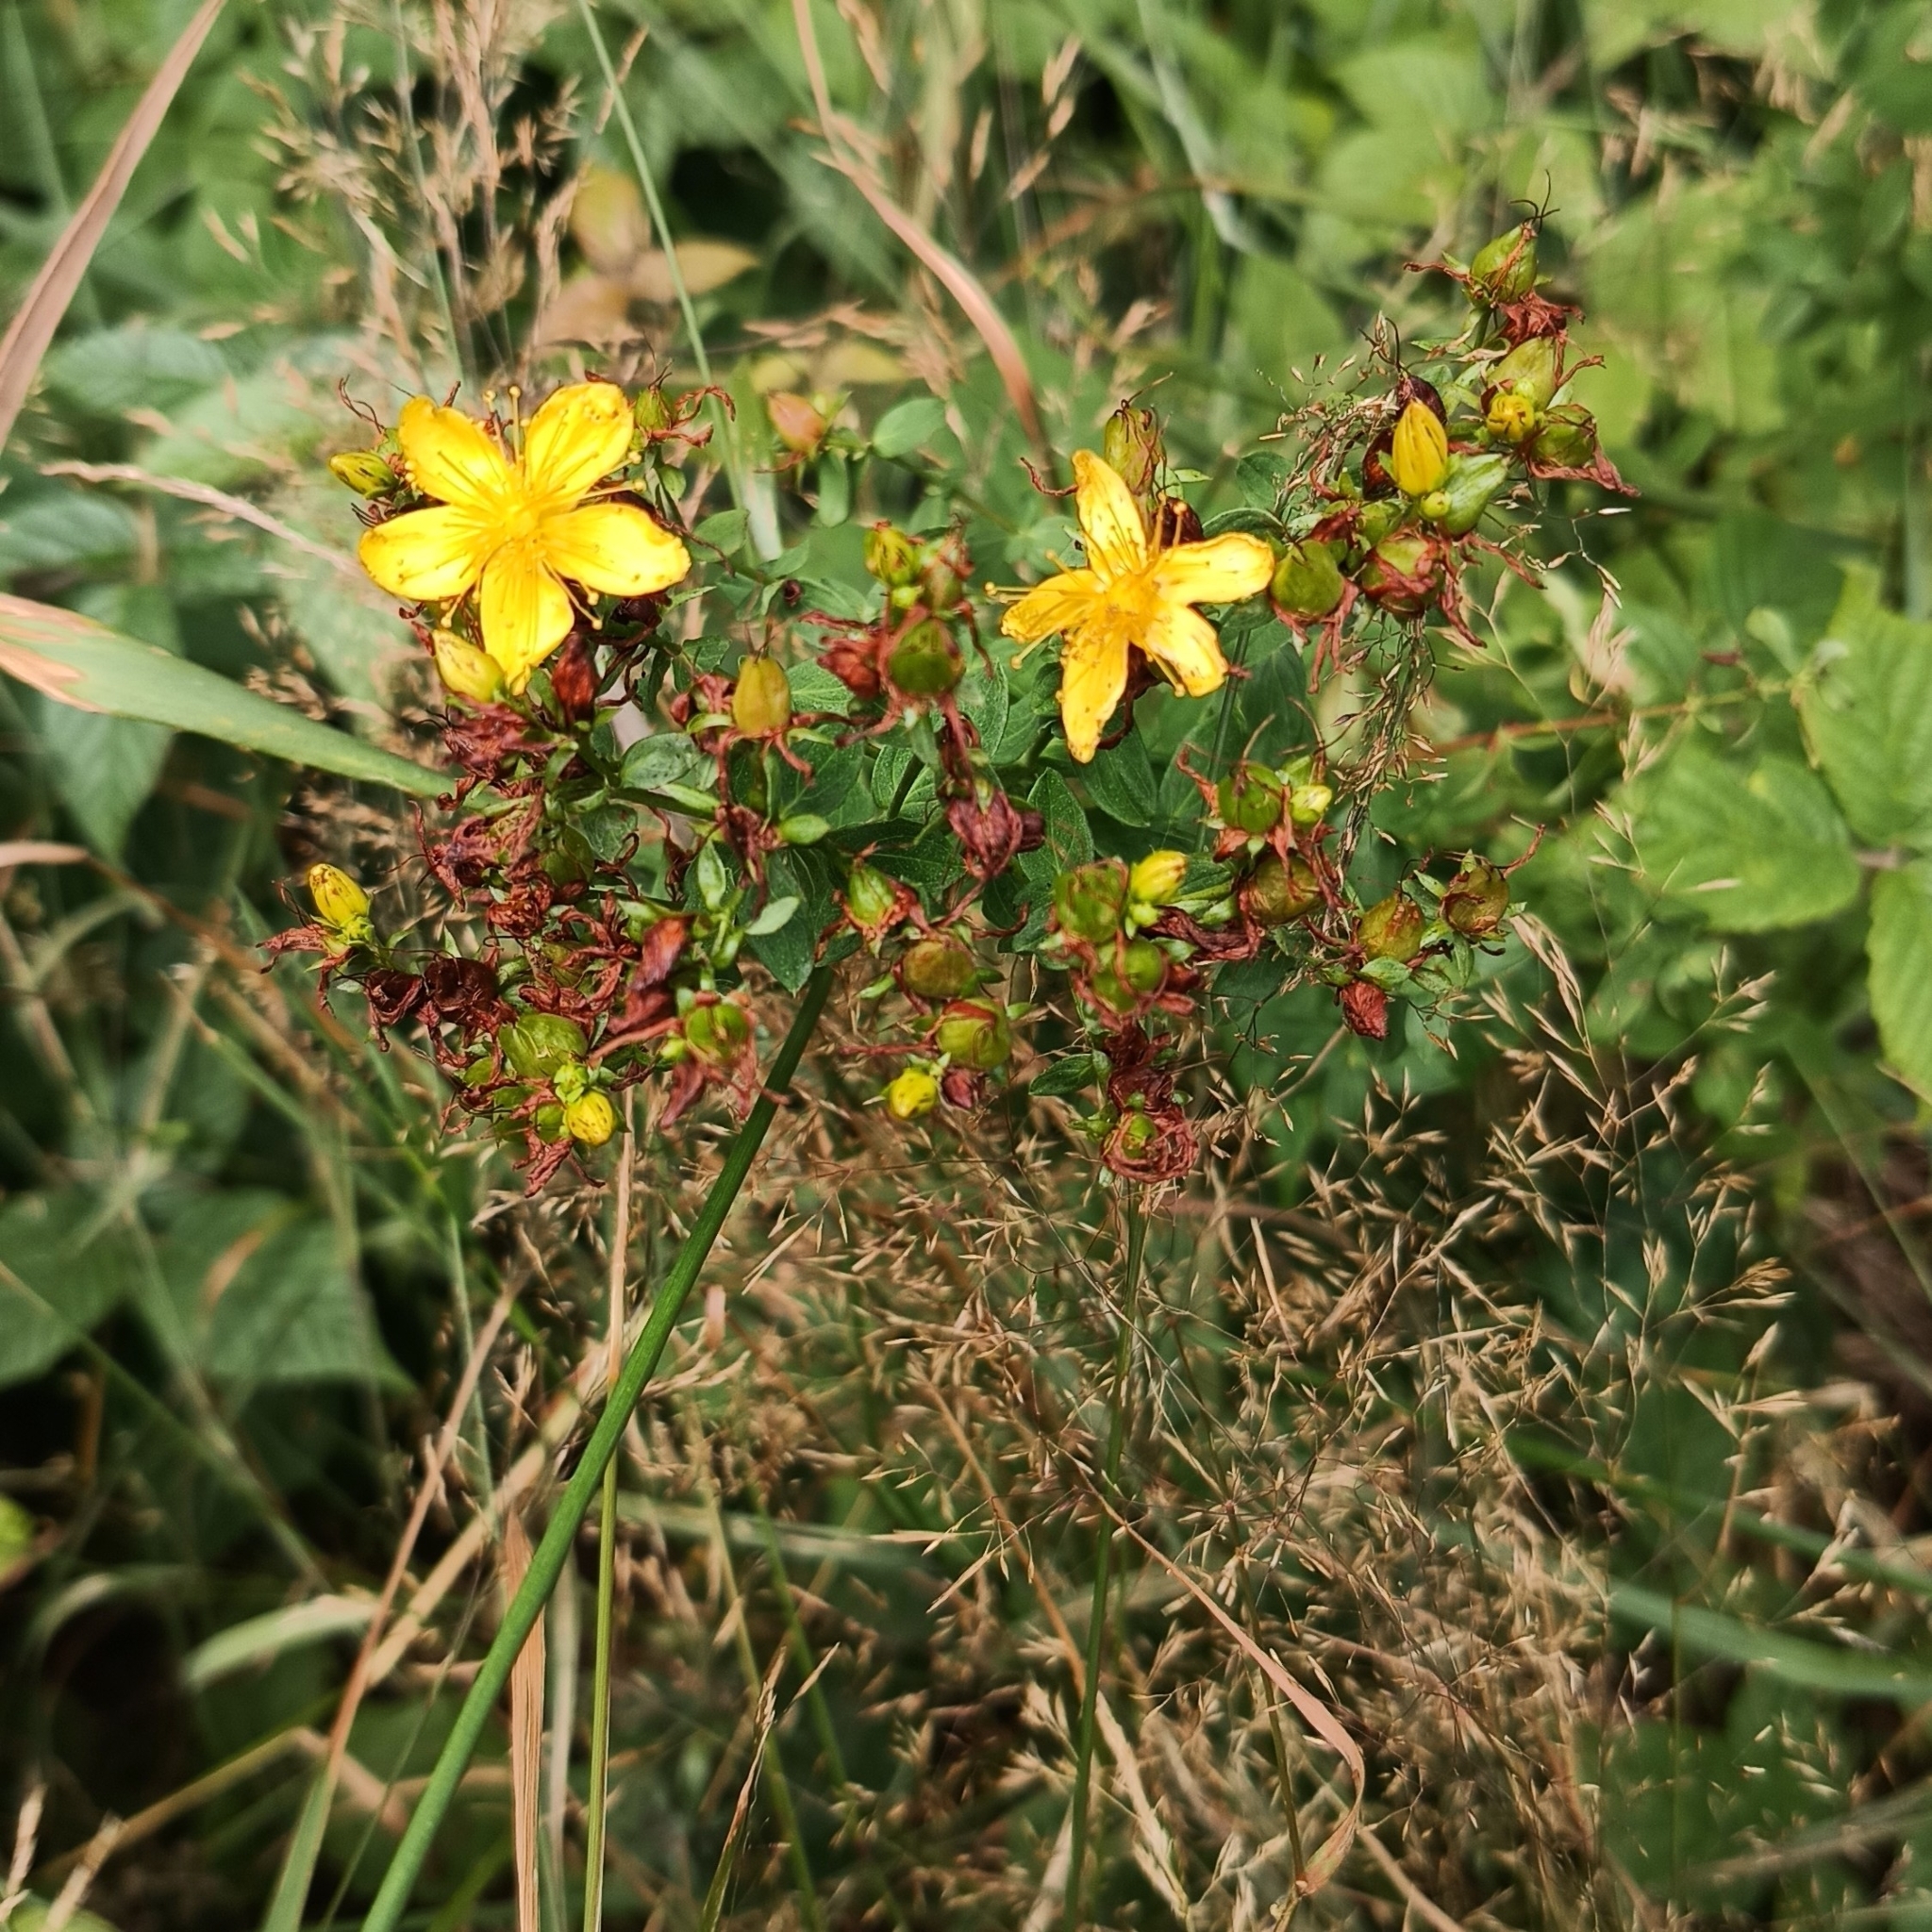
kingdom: Plantae
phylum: Tracheophyta
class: Magnoliopsida
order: Malpighiales
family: Hypericaceae
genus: Hypericum
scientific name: Hypericum perforatum
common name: Common st. johnswort
